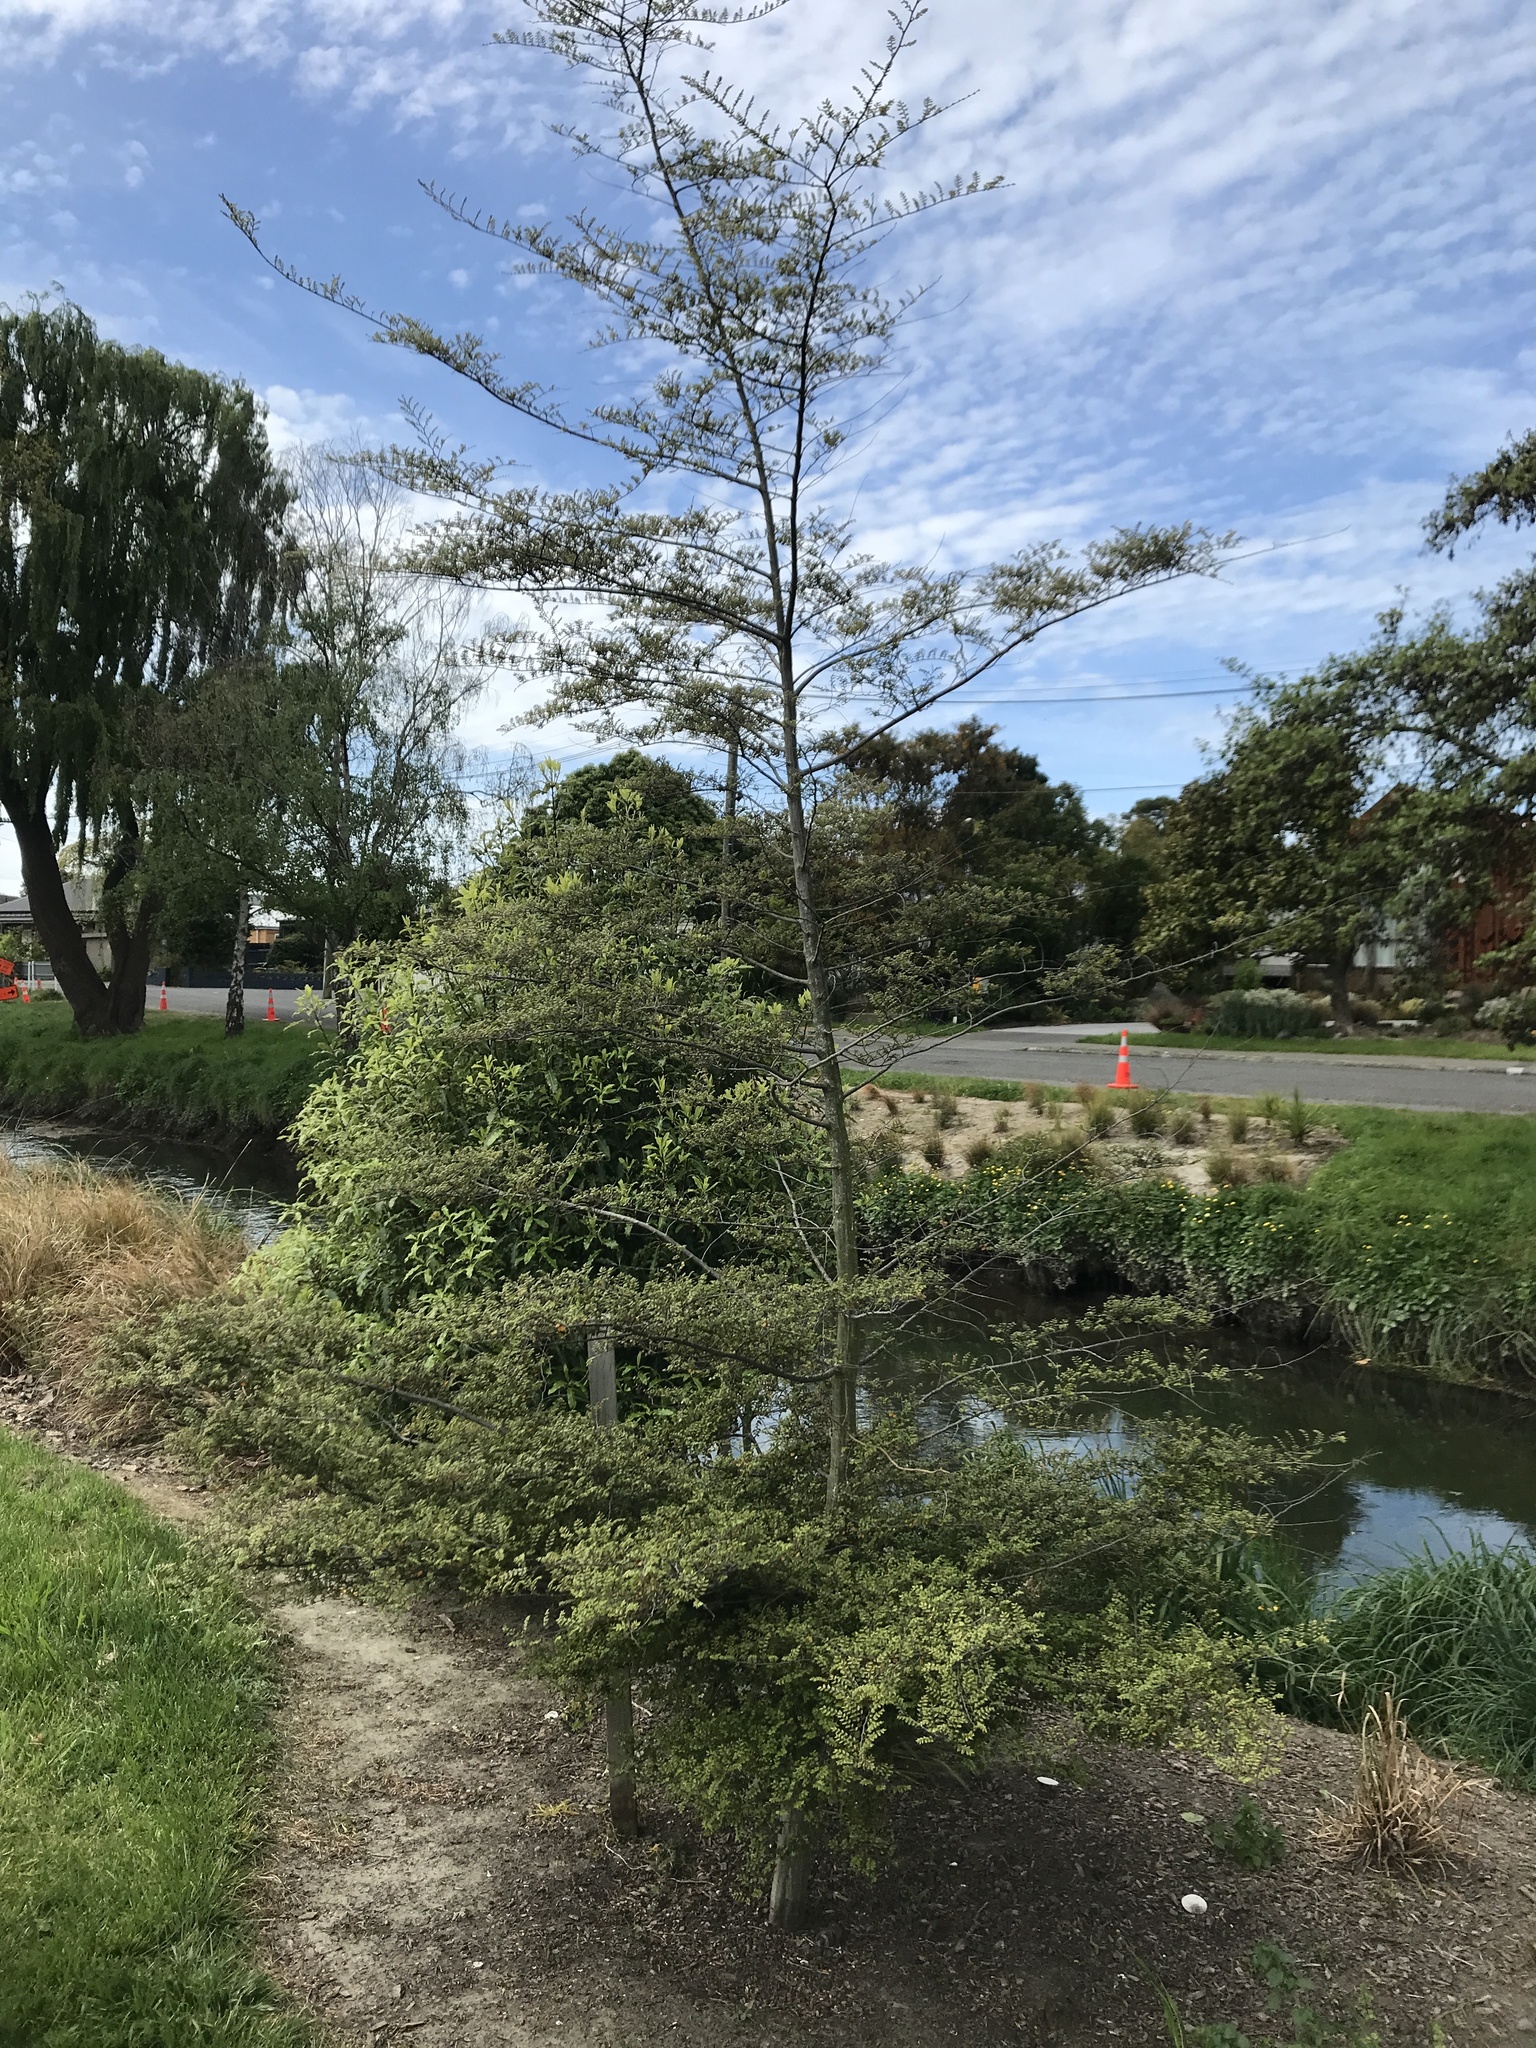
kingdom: Plantae
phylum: Tracheophyta
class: Magnoliopsida
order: Fagales
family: Nothofagaceae
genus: Nothofagus
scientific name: Nothofagus cliffortioides
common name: Mountain beech
